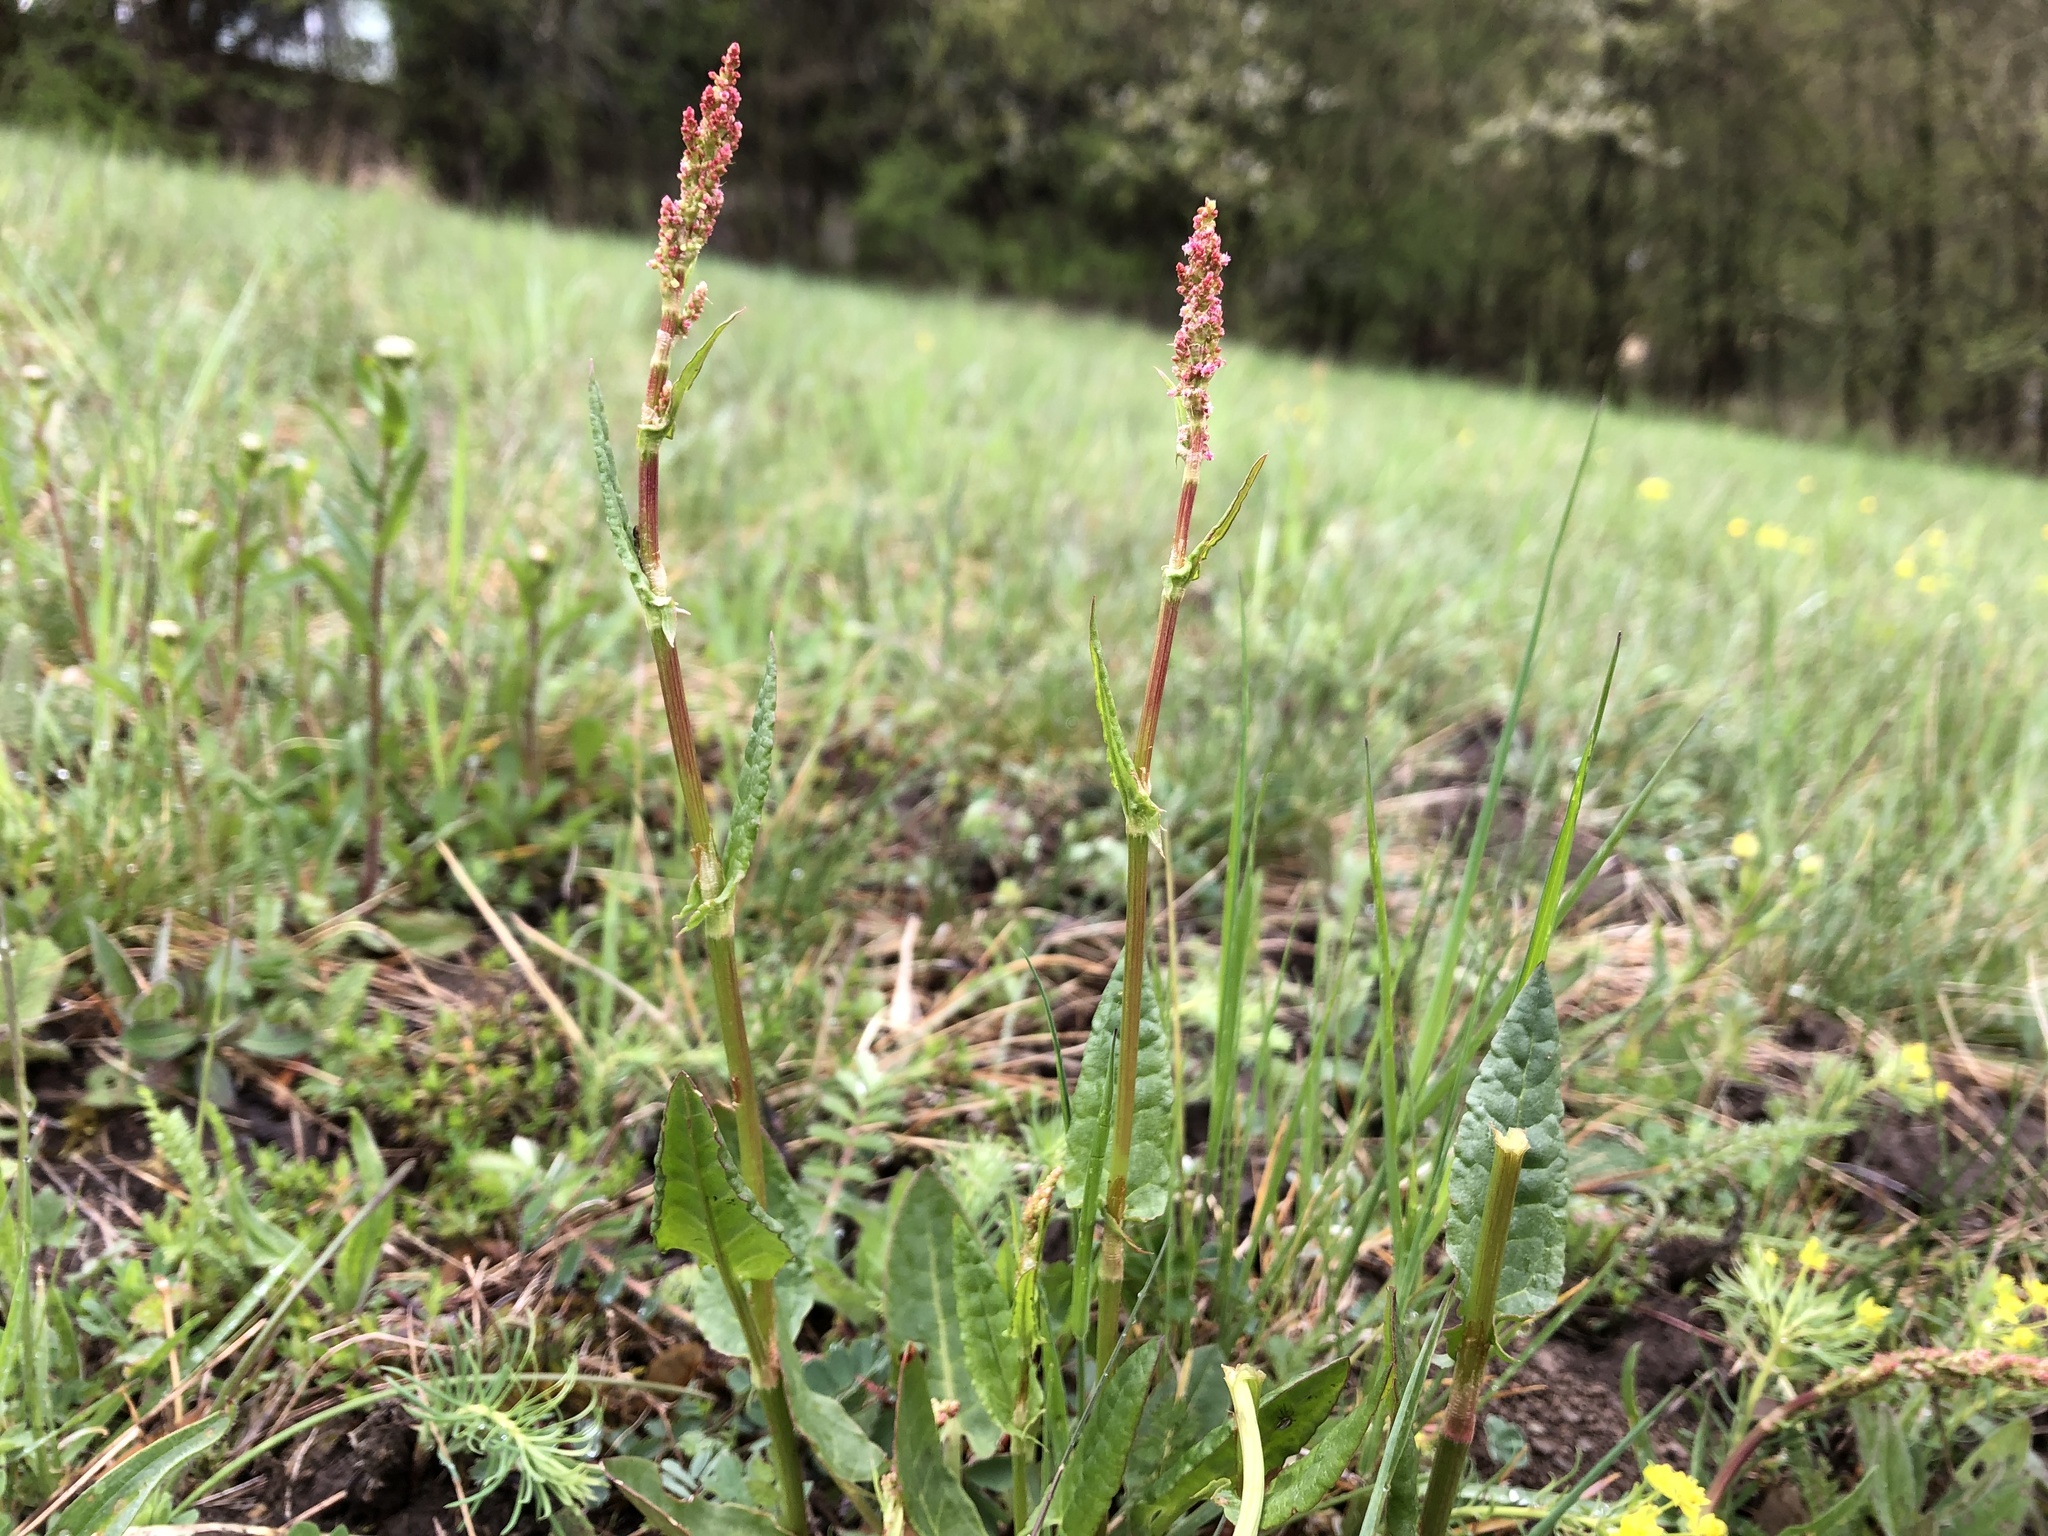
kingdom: Plantae
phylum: Tracheophyta
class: Magnoliopsida
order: Caryophyllales
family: Polygonaceae
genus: Rumex
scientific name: Rumex acetosa
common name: Garden sorrel
